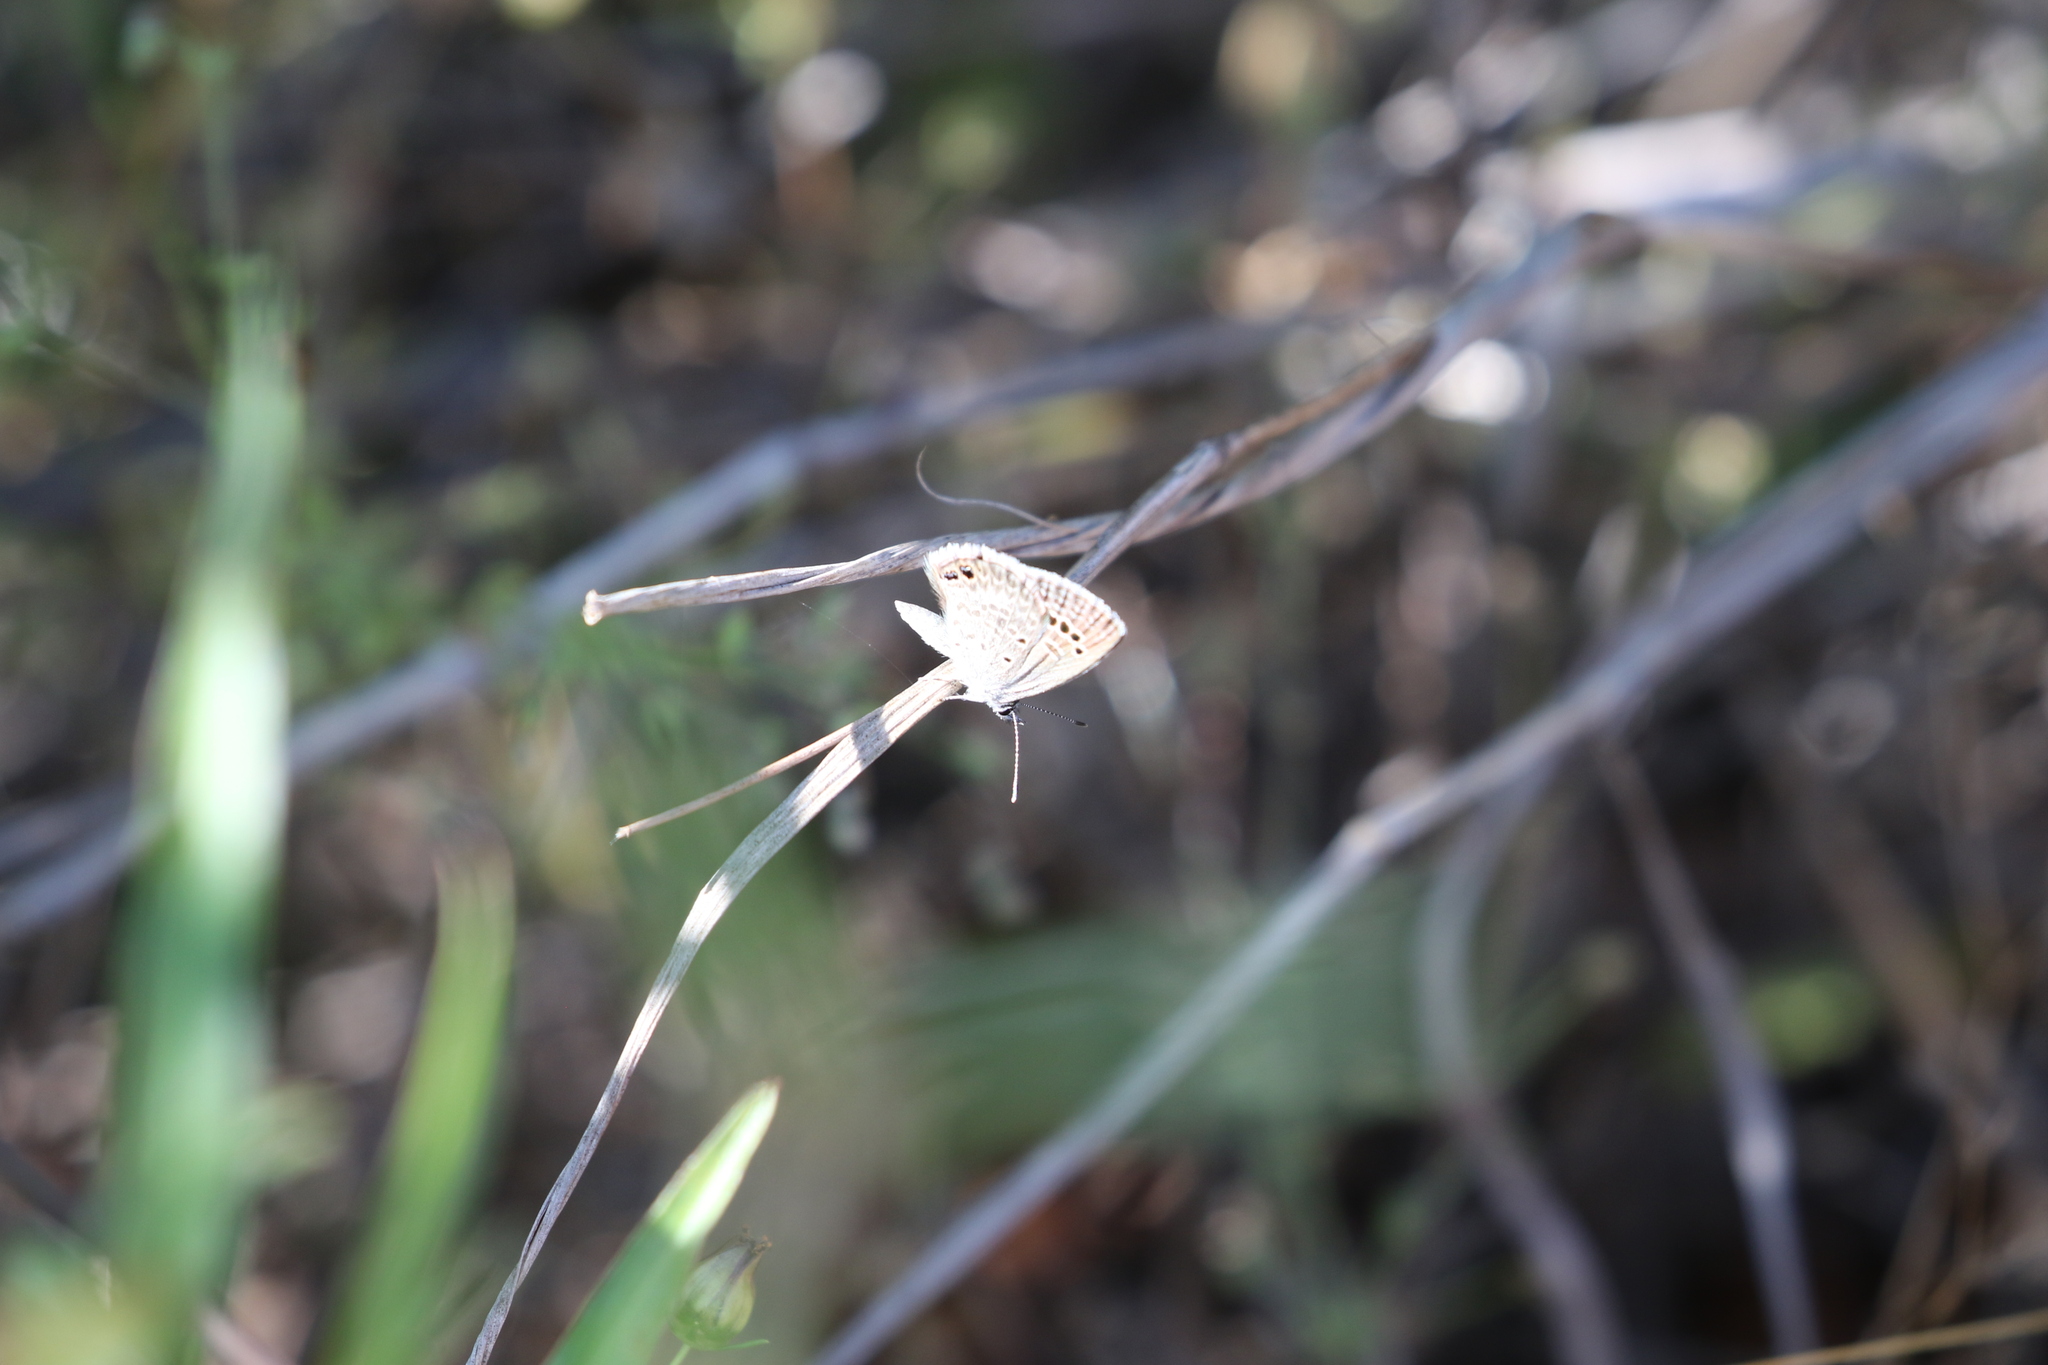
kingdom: Animalia
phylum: Arthropoda
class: Insecta
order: Lepidoptera
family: Lycaenidae
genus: Echinargus
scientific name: Echinargus isola
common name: Reakirt's blue
